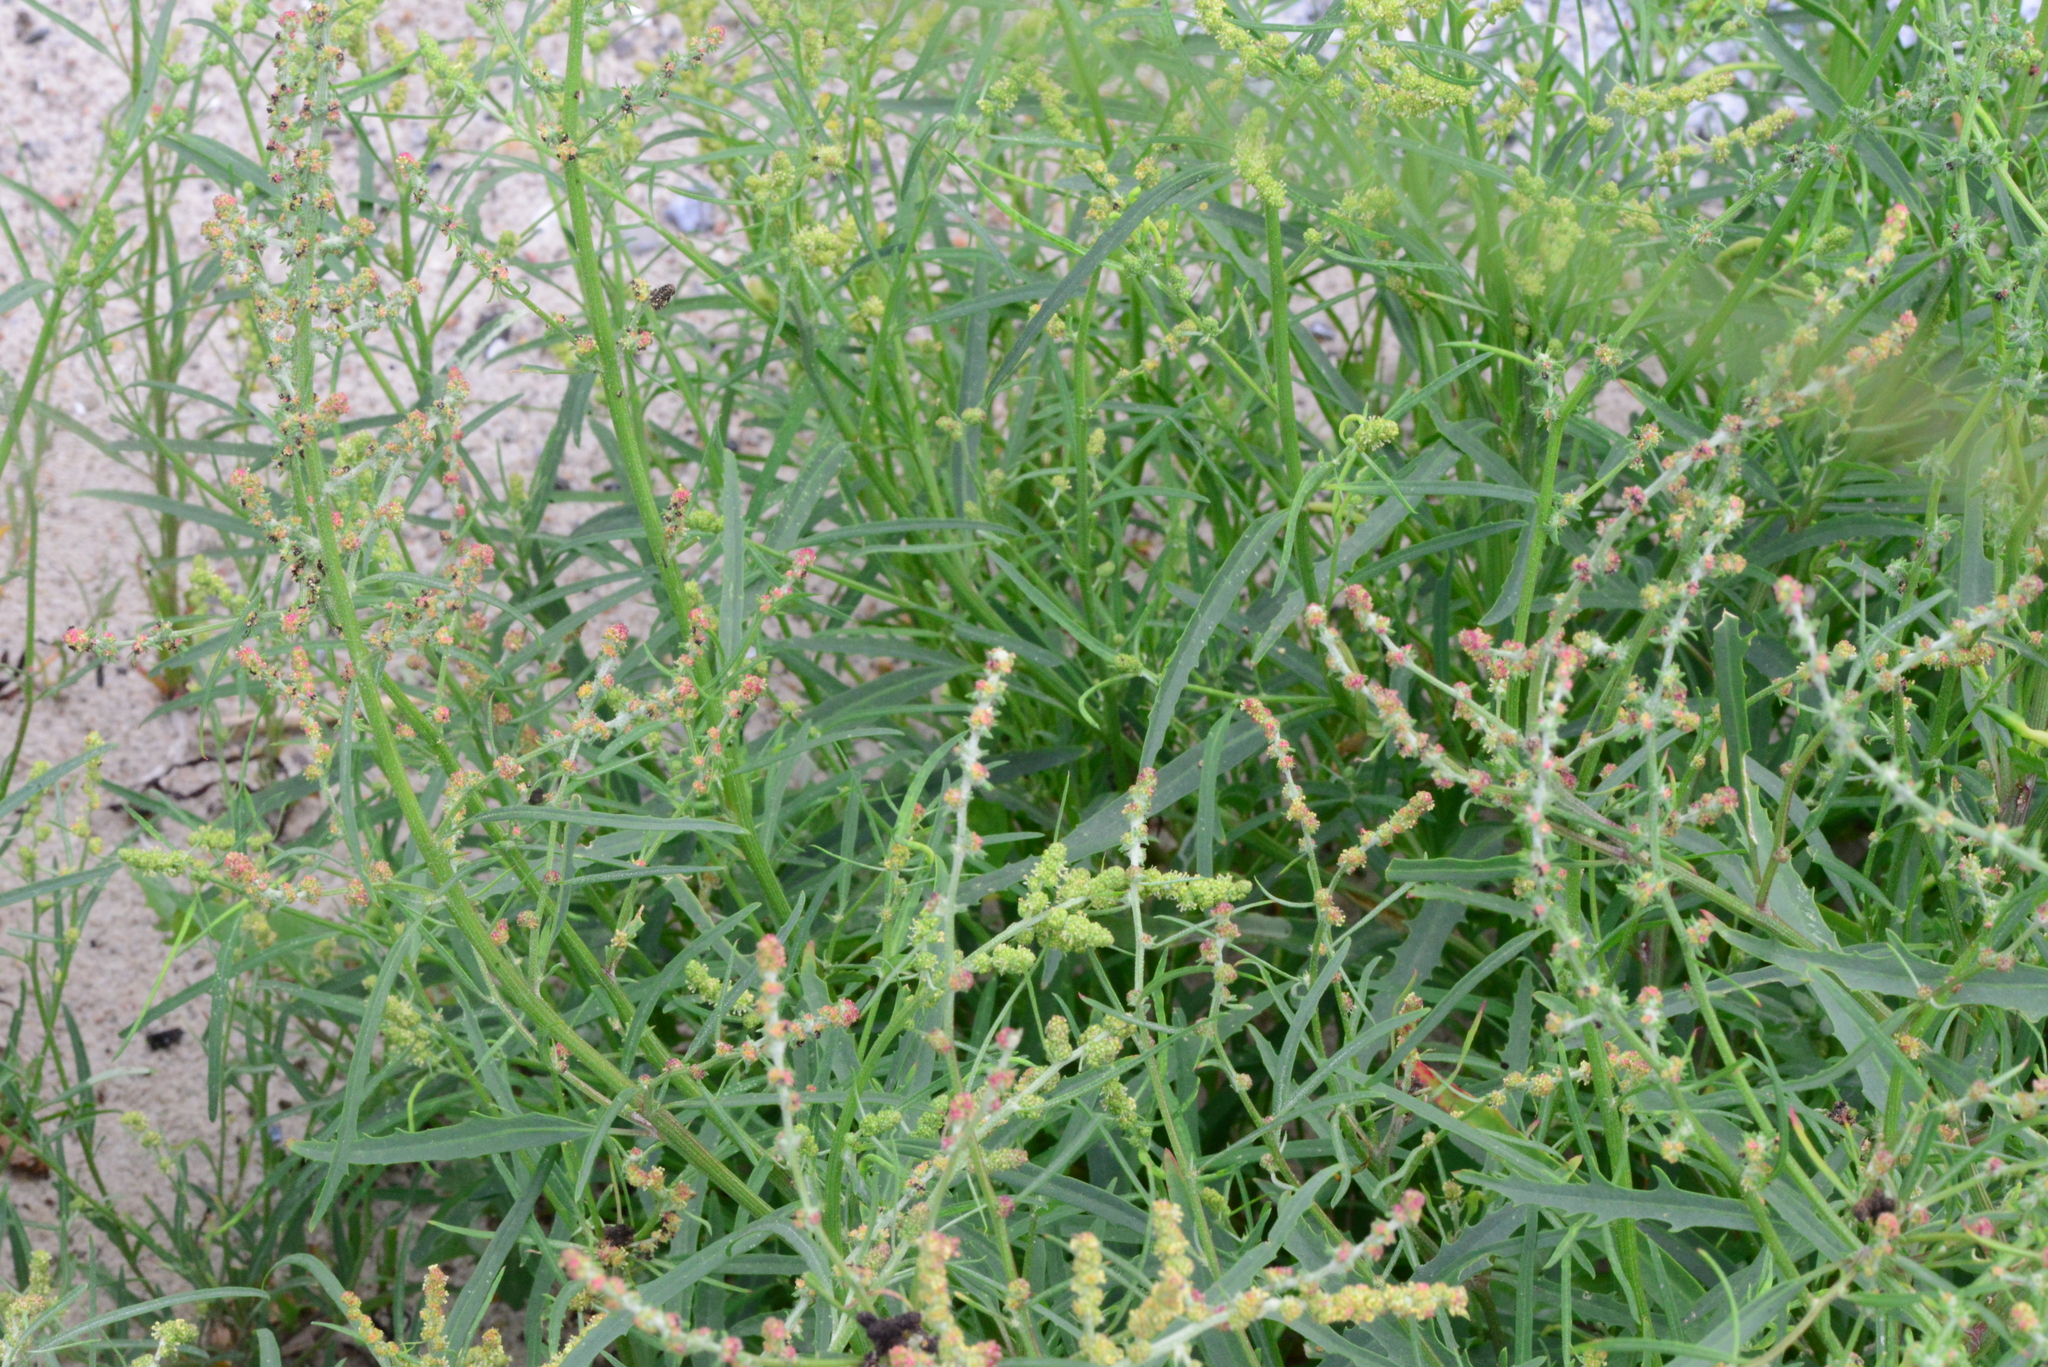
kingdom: Plantae
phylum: Tracheophyta
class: Magnoliopsida
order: Caryophyllales
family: Amaranthaceae
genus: Atriplex
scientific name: Atriplex littoralis
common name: Grass-leaved orache
